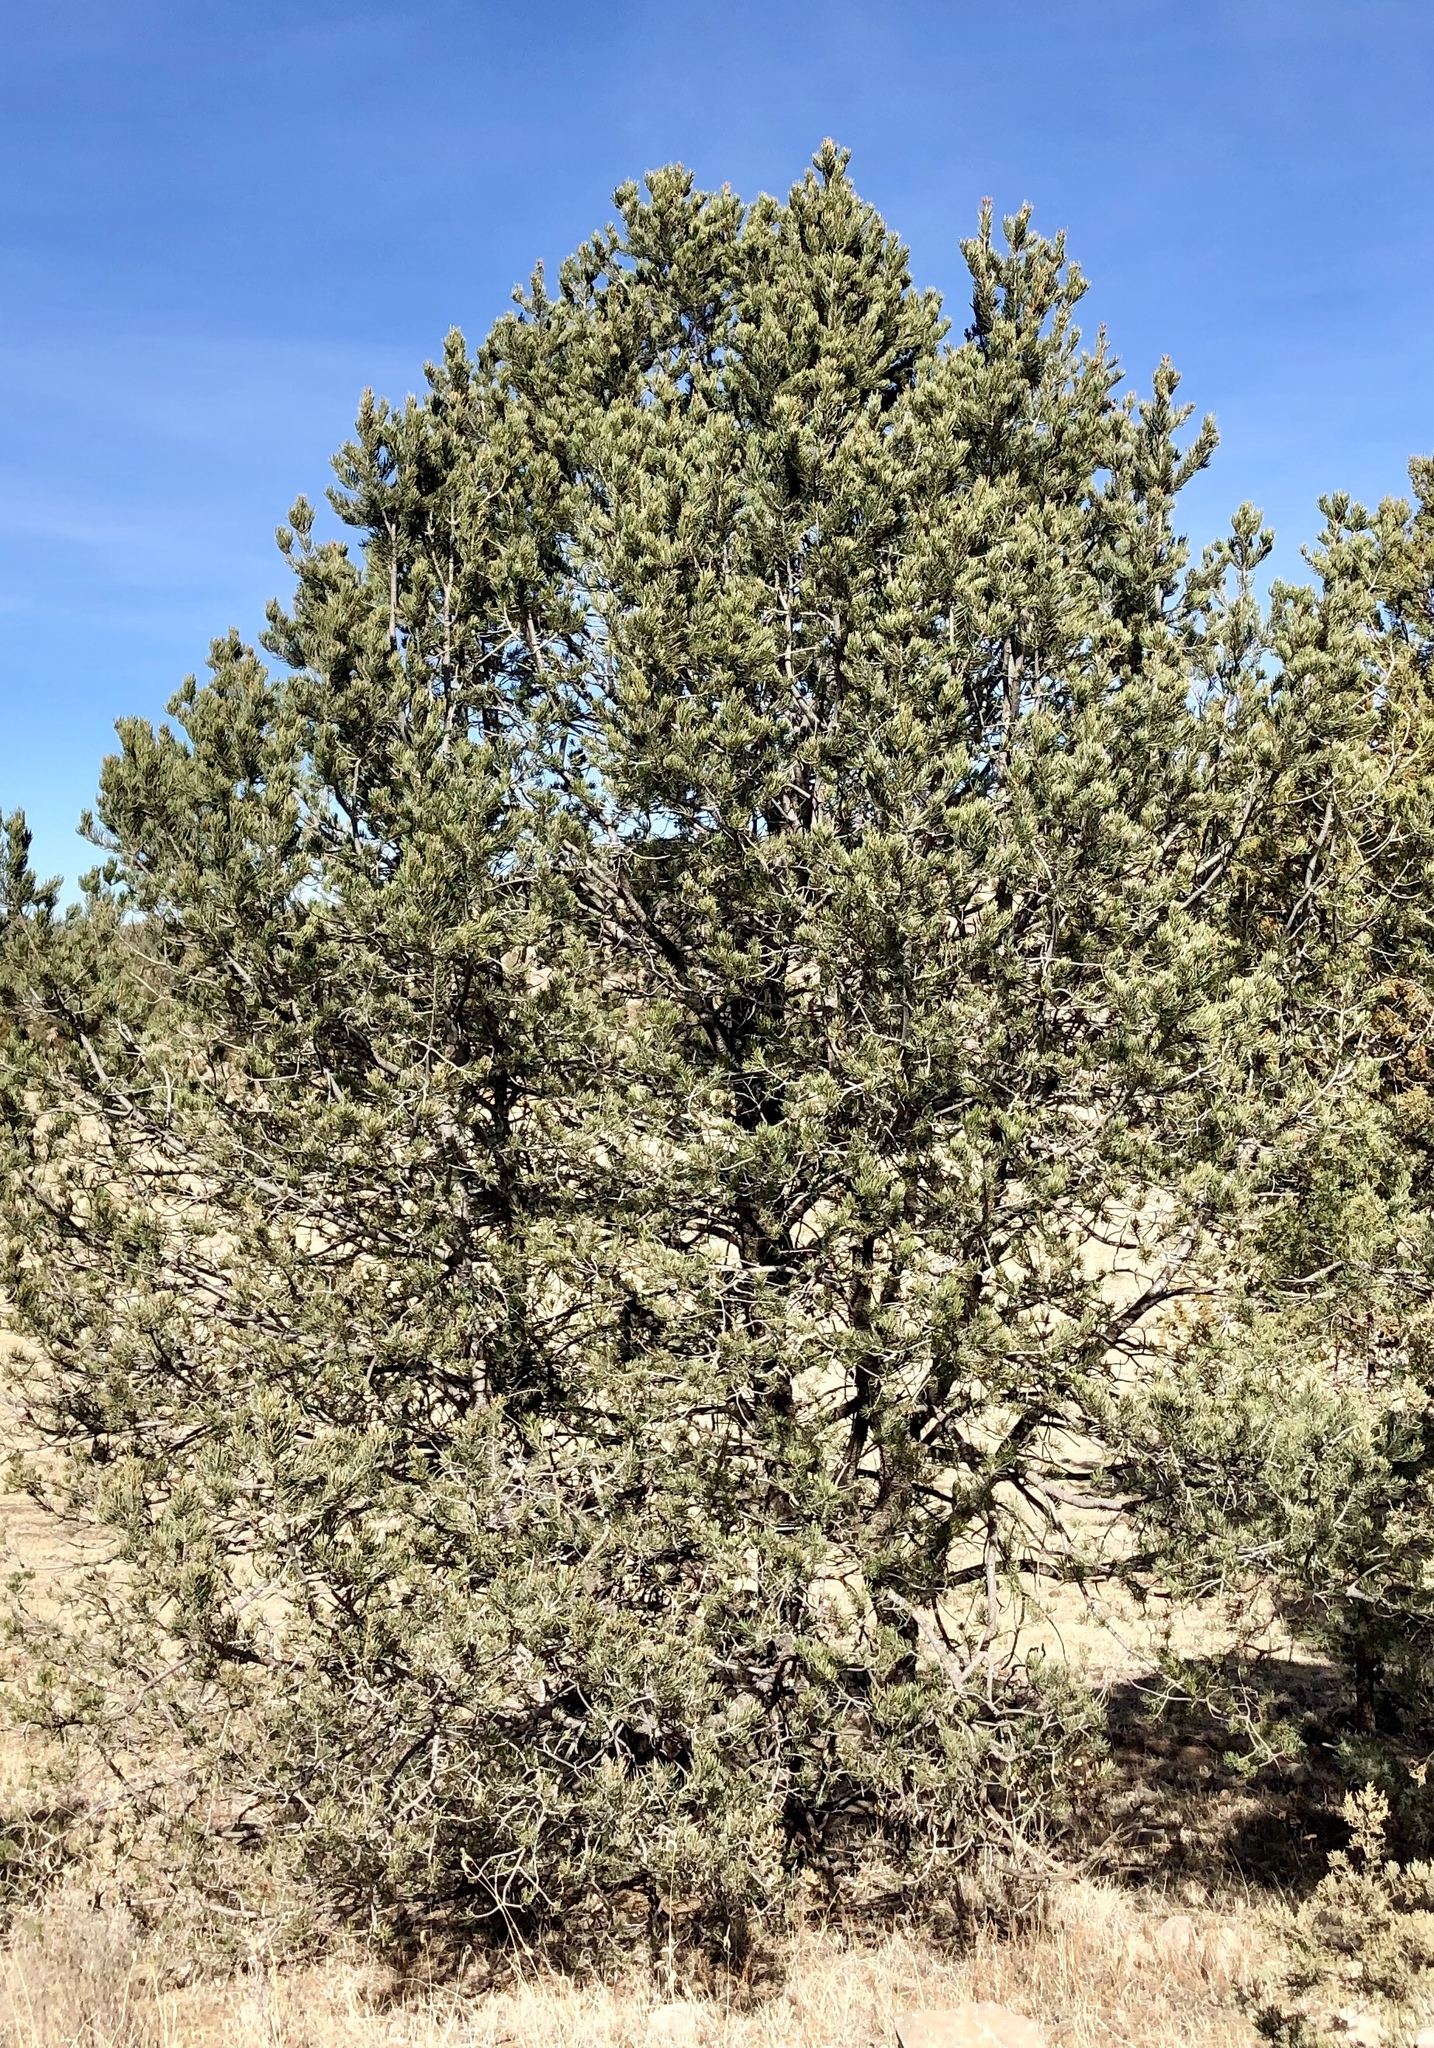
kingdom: Plantae
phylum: Tracheophyta
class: Pinopsida
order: Pinales
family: Pinaceae
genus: Pinus
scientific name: Pinus edulis
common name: Colorado pinyon
